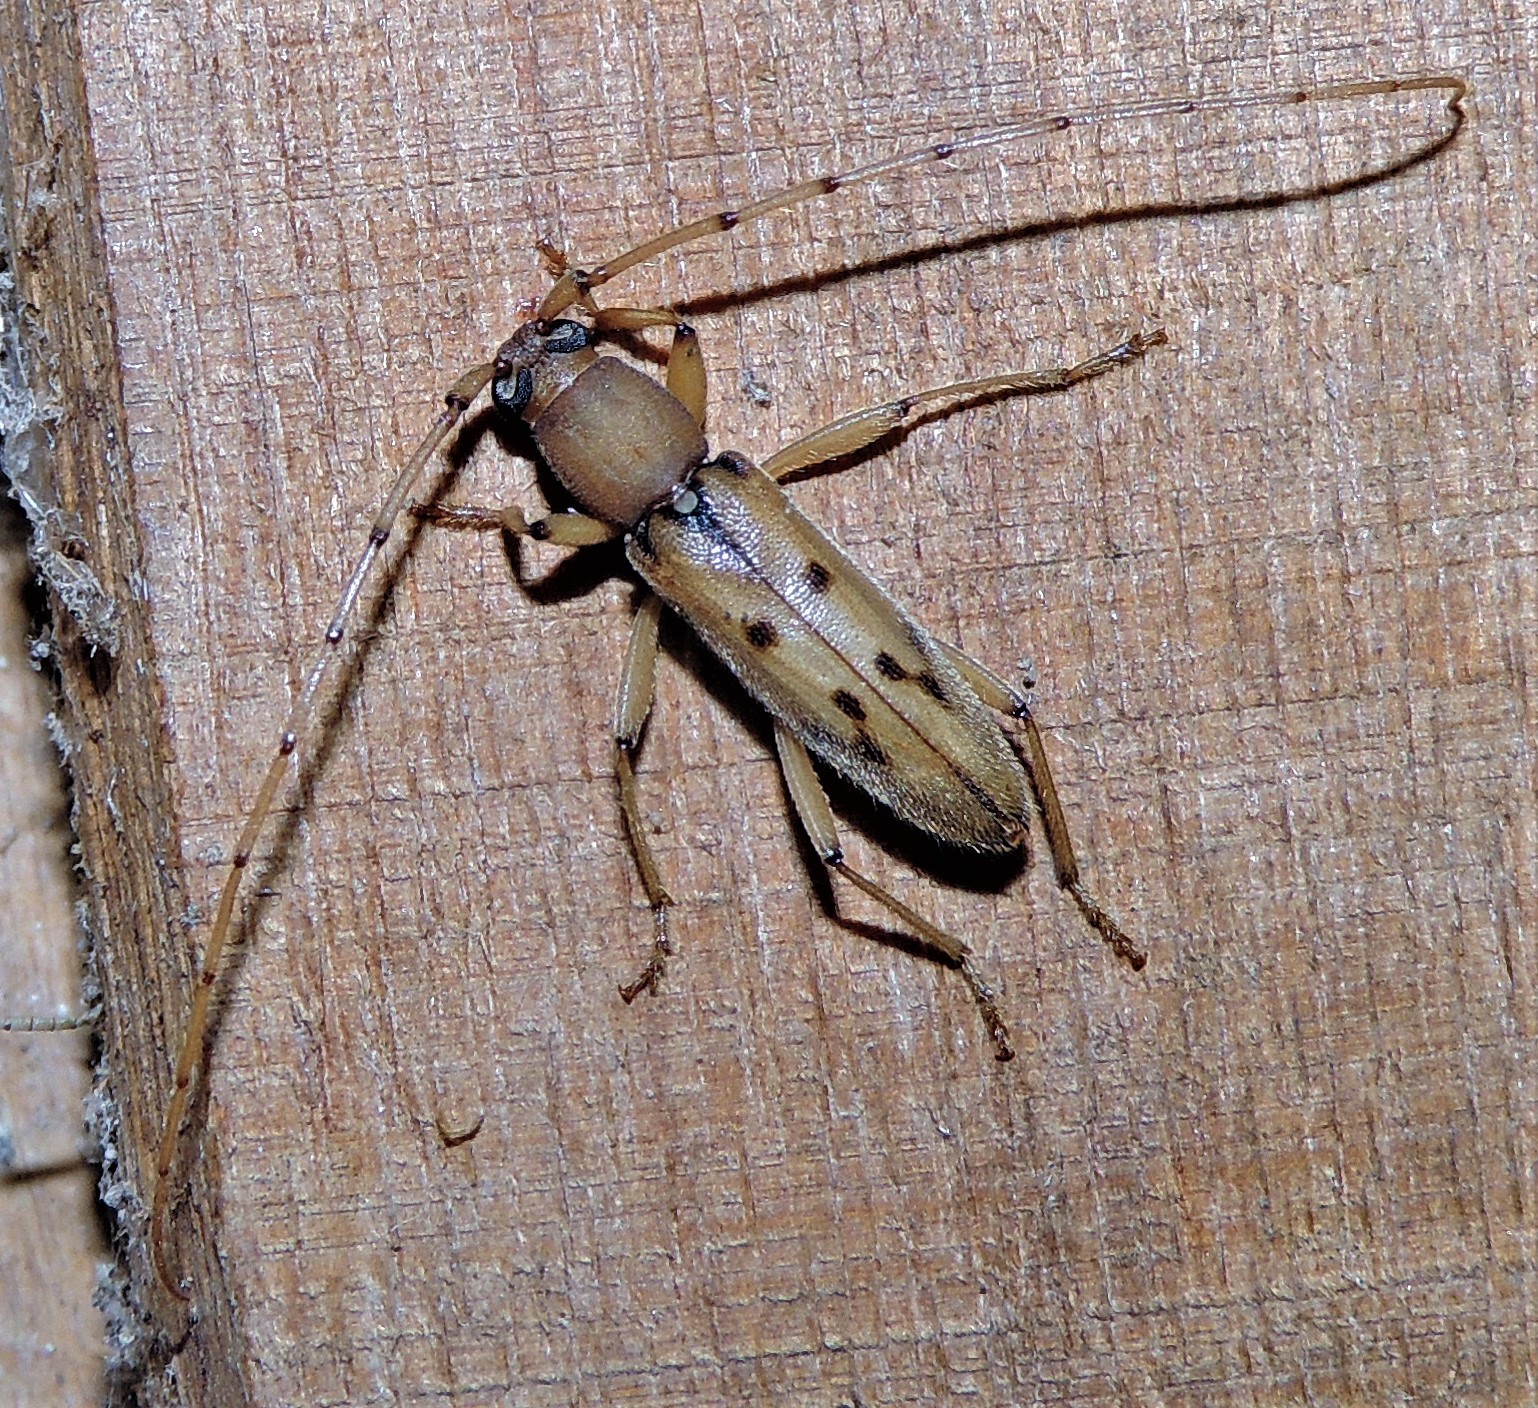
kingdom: Animalia
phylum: Arthropoda
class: Insecta
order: Coleoptera
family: Cerambycidae
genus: Achryson
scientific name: Achryson surinamum
